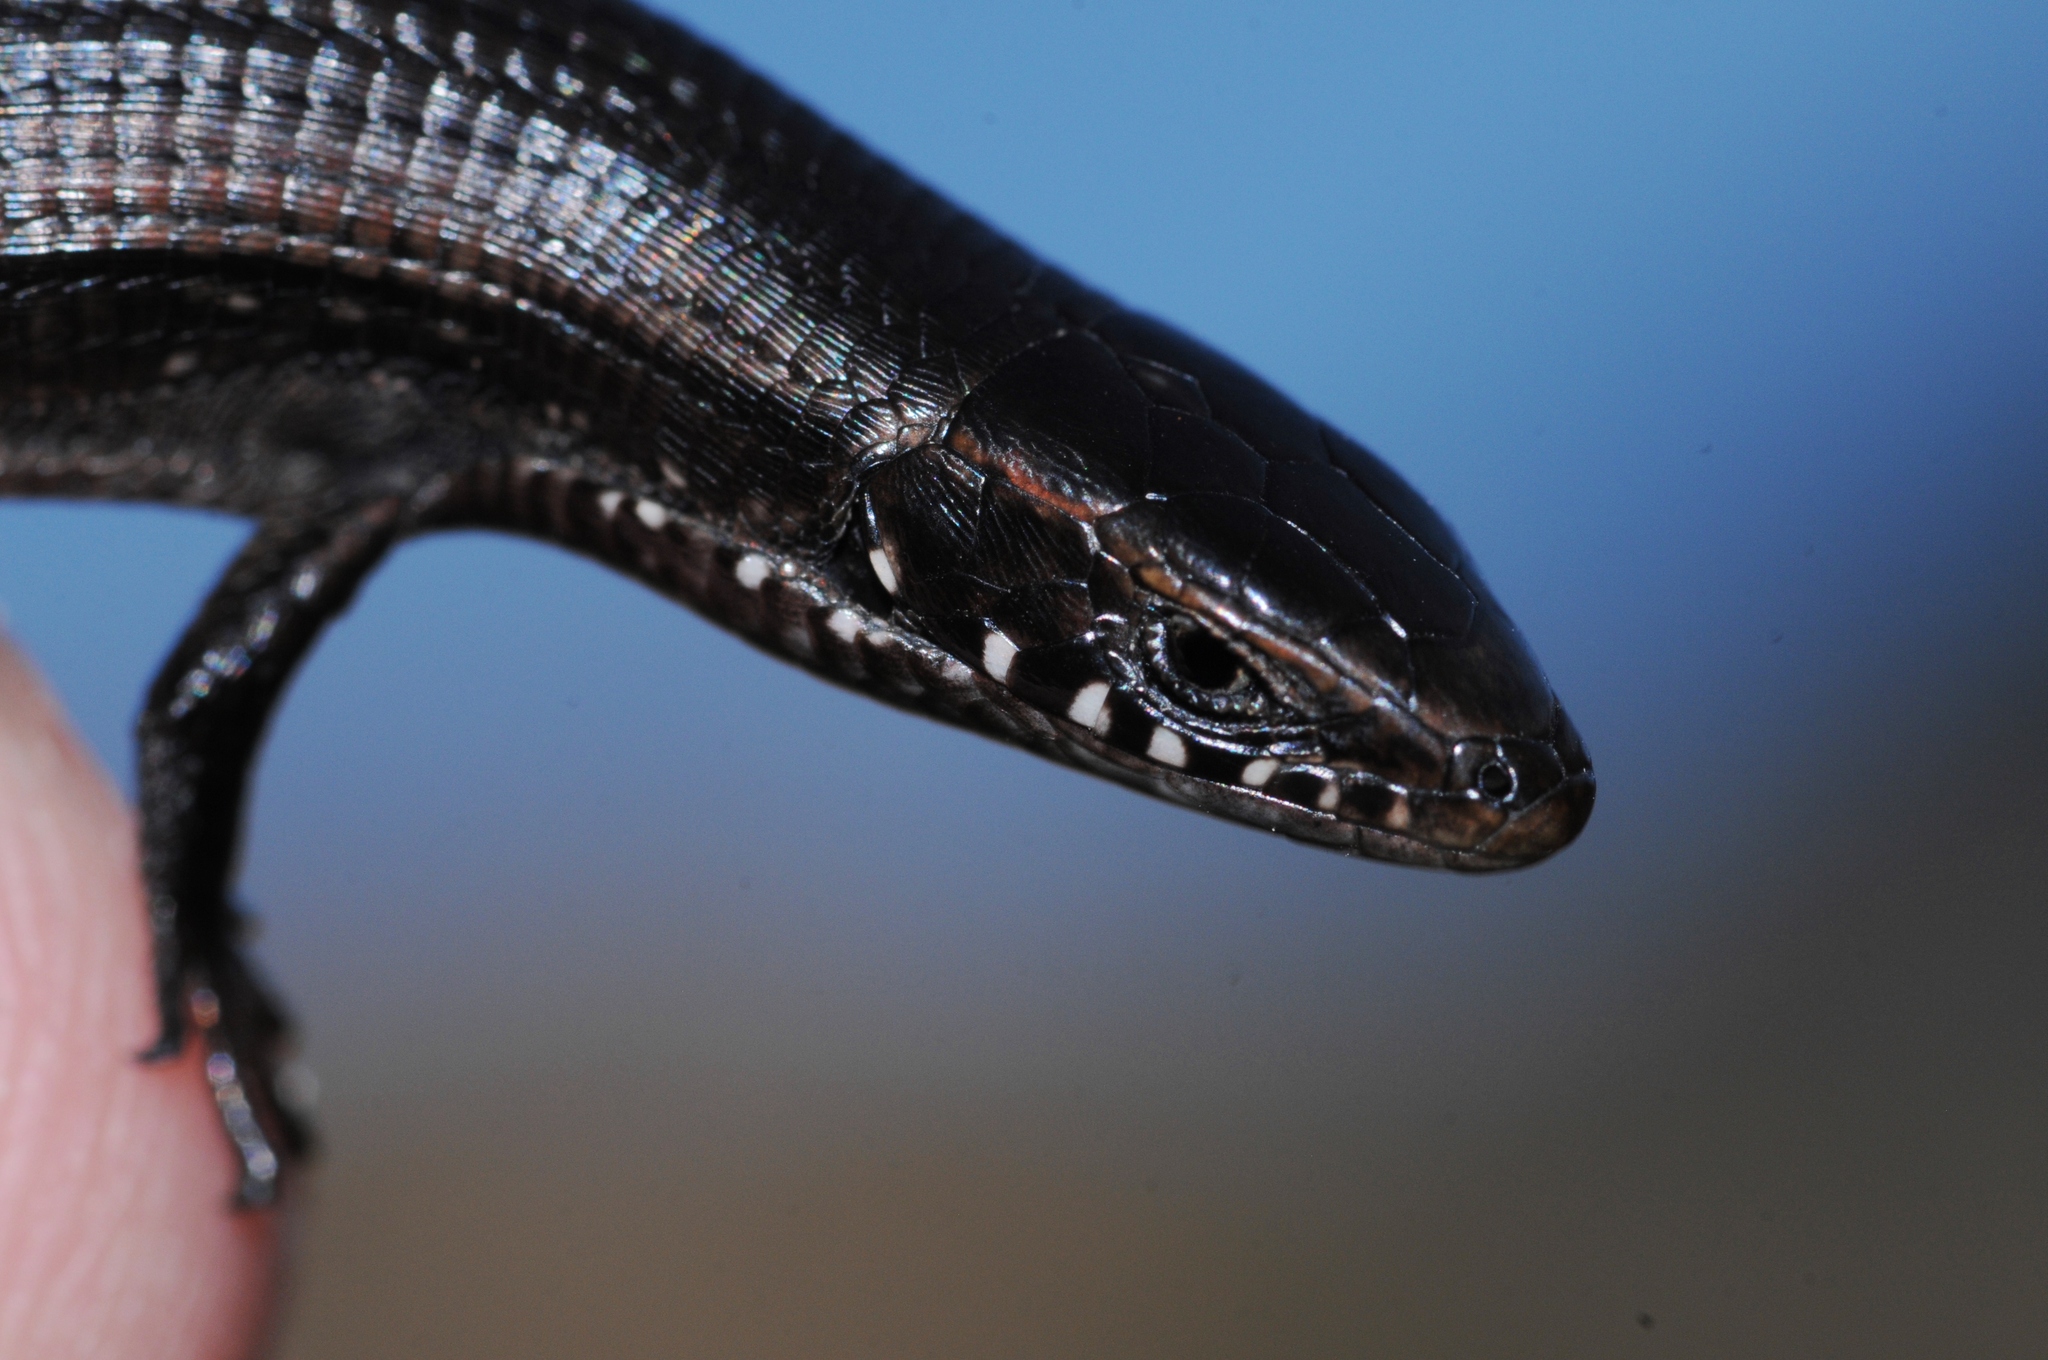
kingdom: Animalia
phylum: Chordata
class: Squamata
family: Gerrhosauridae
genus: Tetradactylus
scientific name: Tetradactylus seps
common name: Five-toed whip lizard
